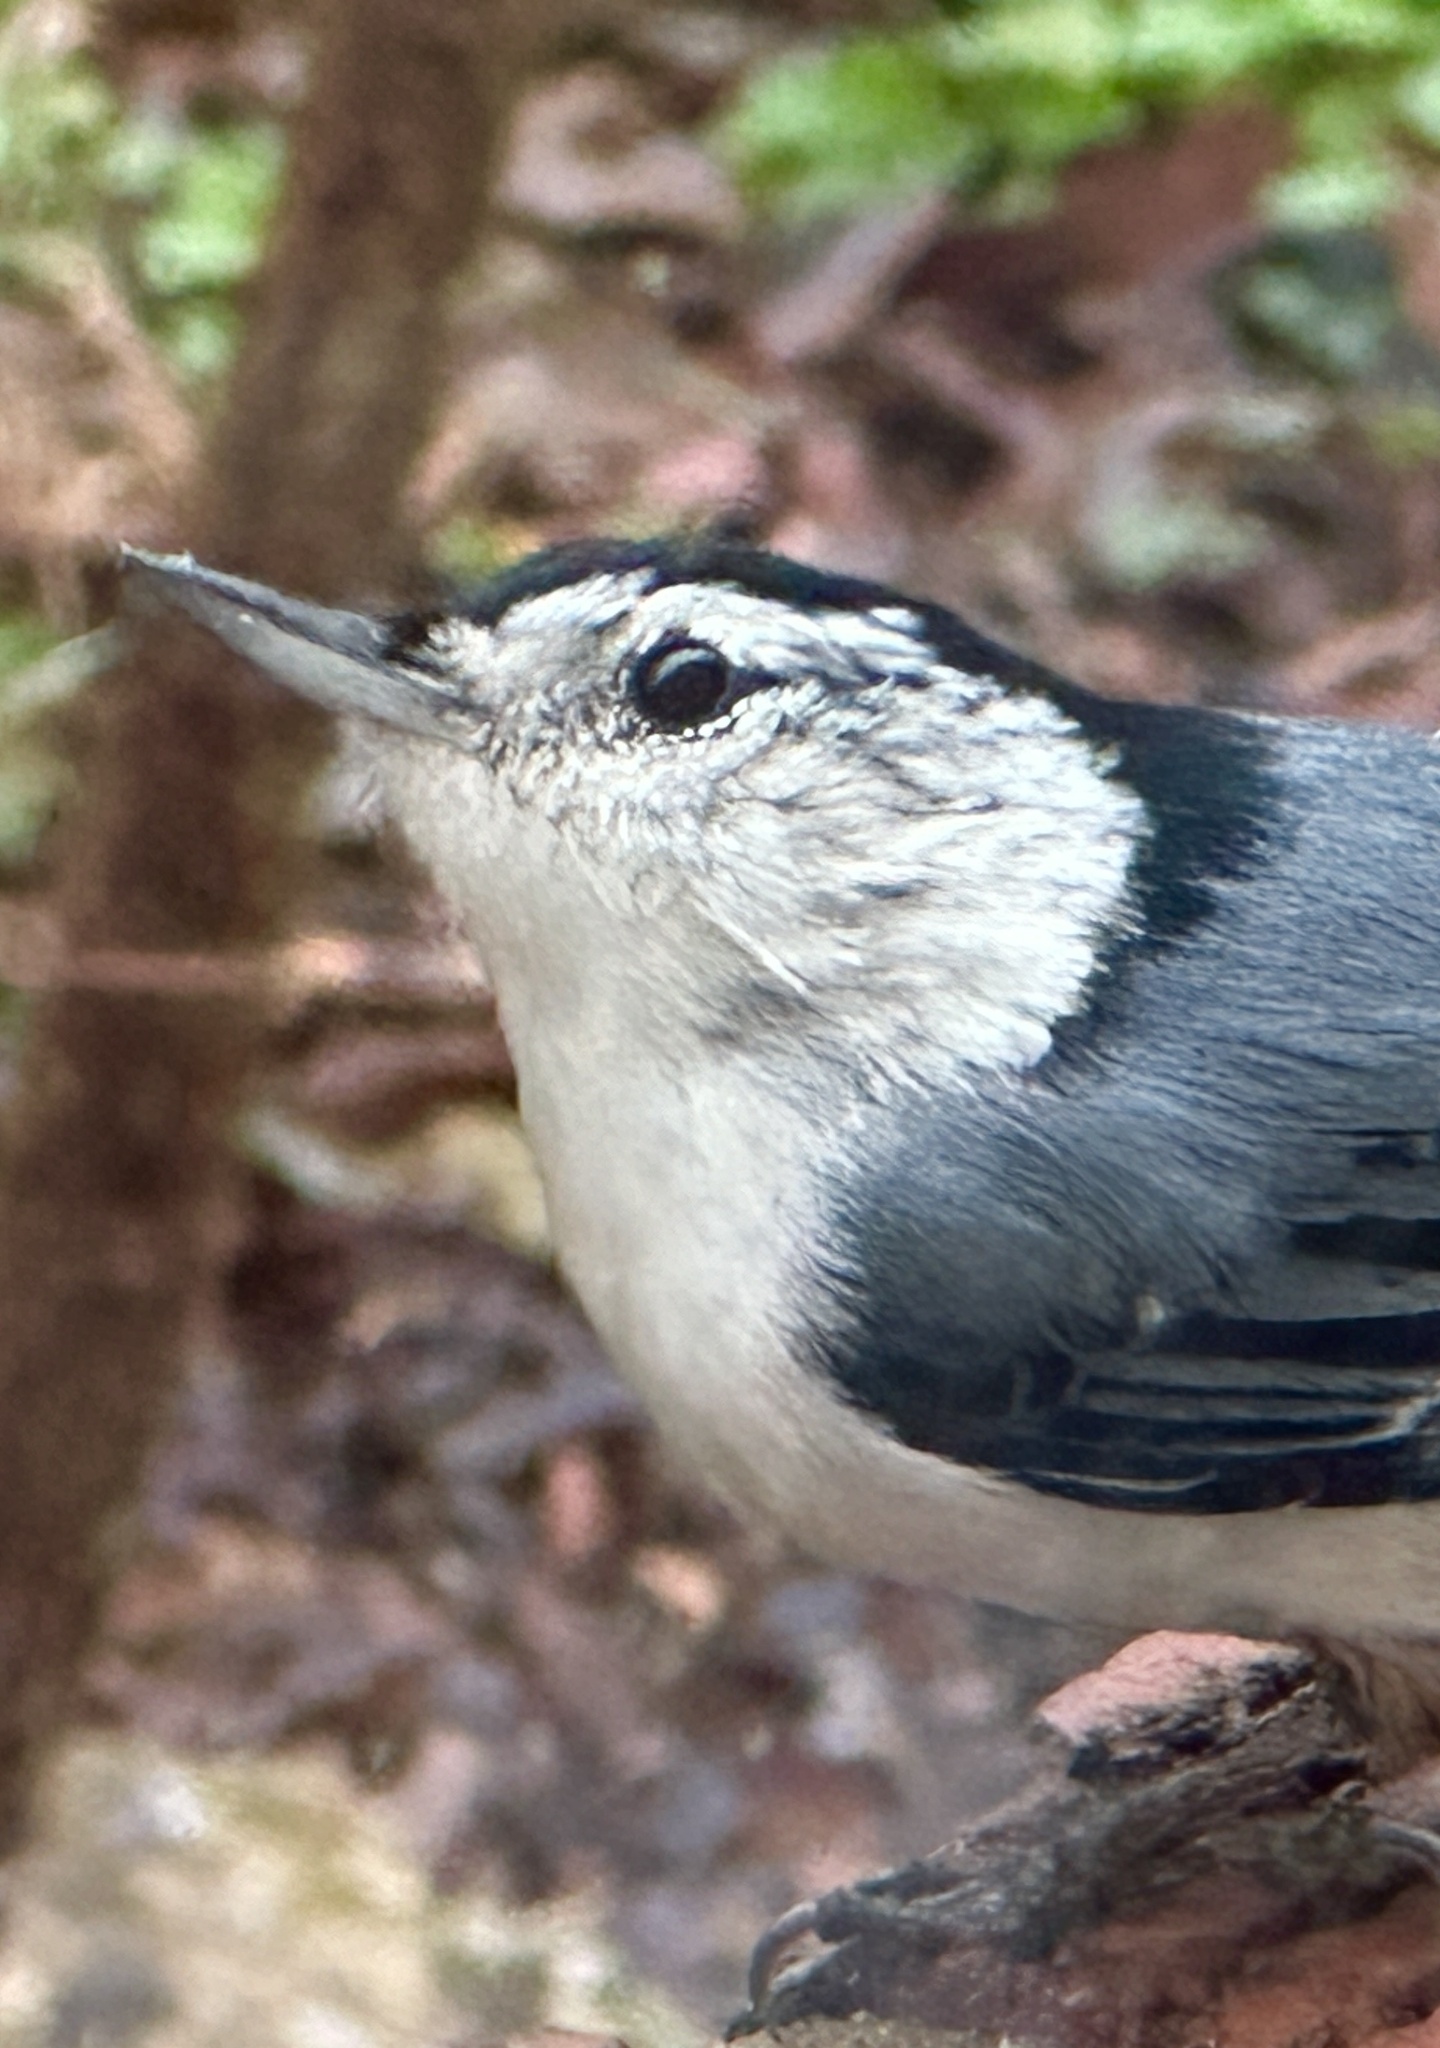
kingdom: Animalia
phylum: Chordata
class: Aves
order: Passeriformes
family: Sittidae
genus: Sitta
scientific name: Sitta carolinensis
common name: White-breasted nuthatch
